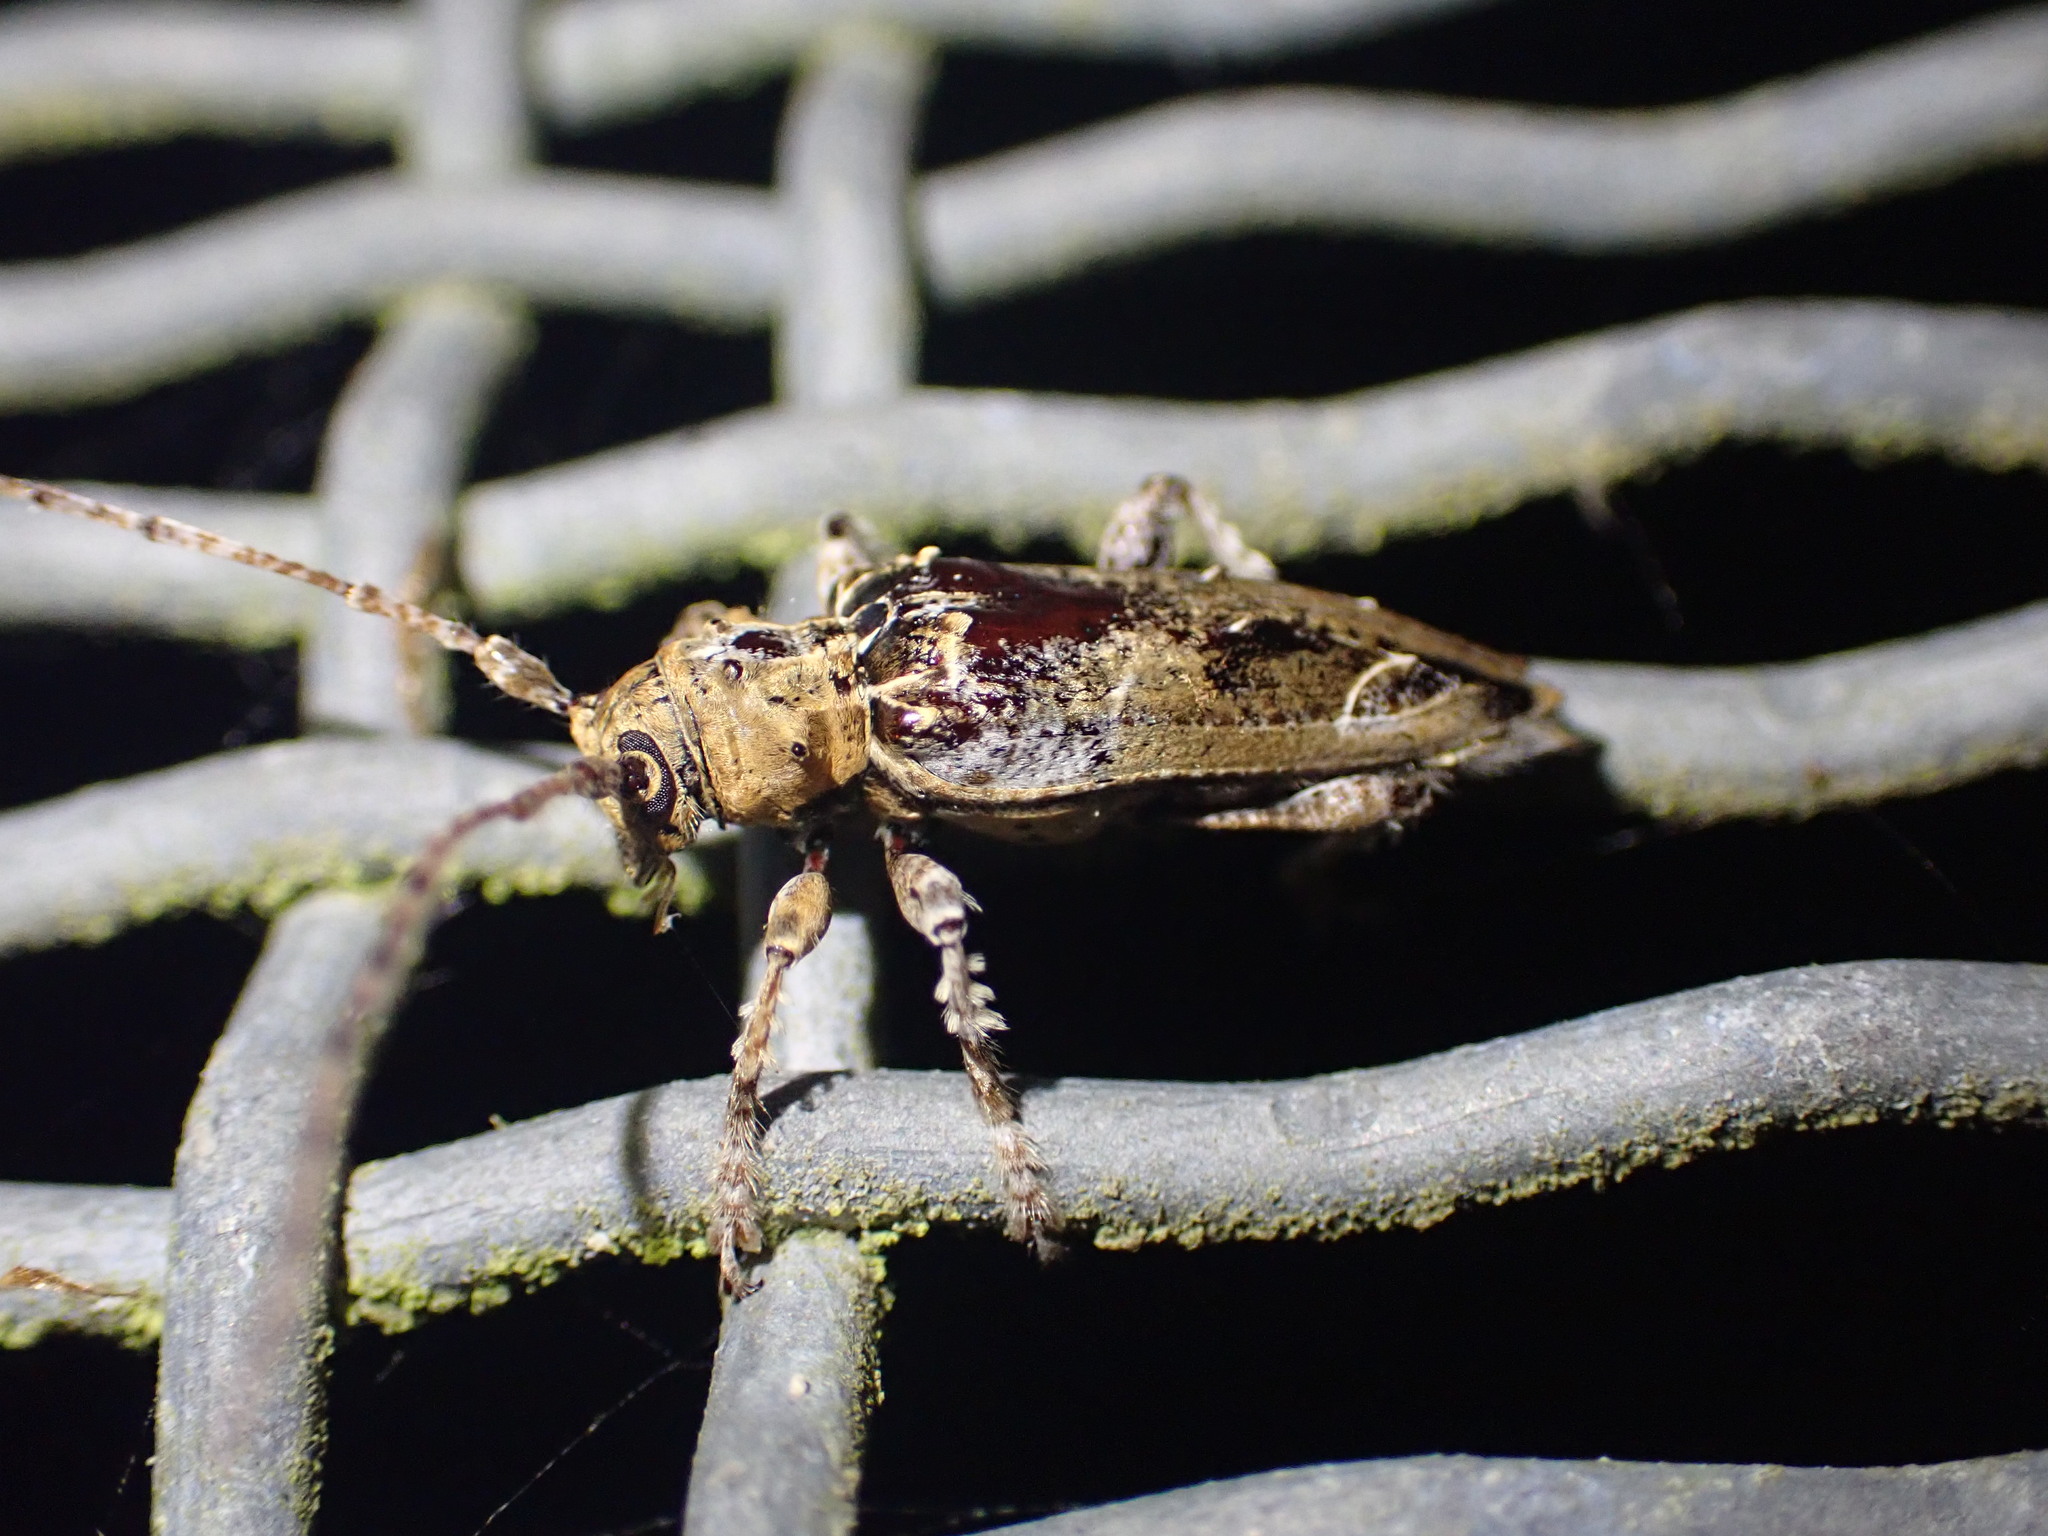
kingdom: Animalia
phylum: Arthropoda
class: Insecta
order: Coleoptera
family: Cerambycidae
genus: Tetrorea
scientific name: Tetrorea cilipes
